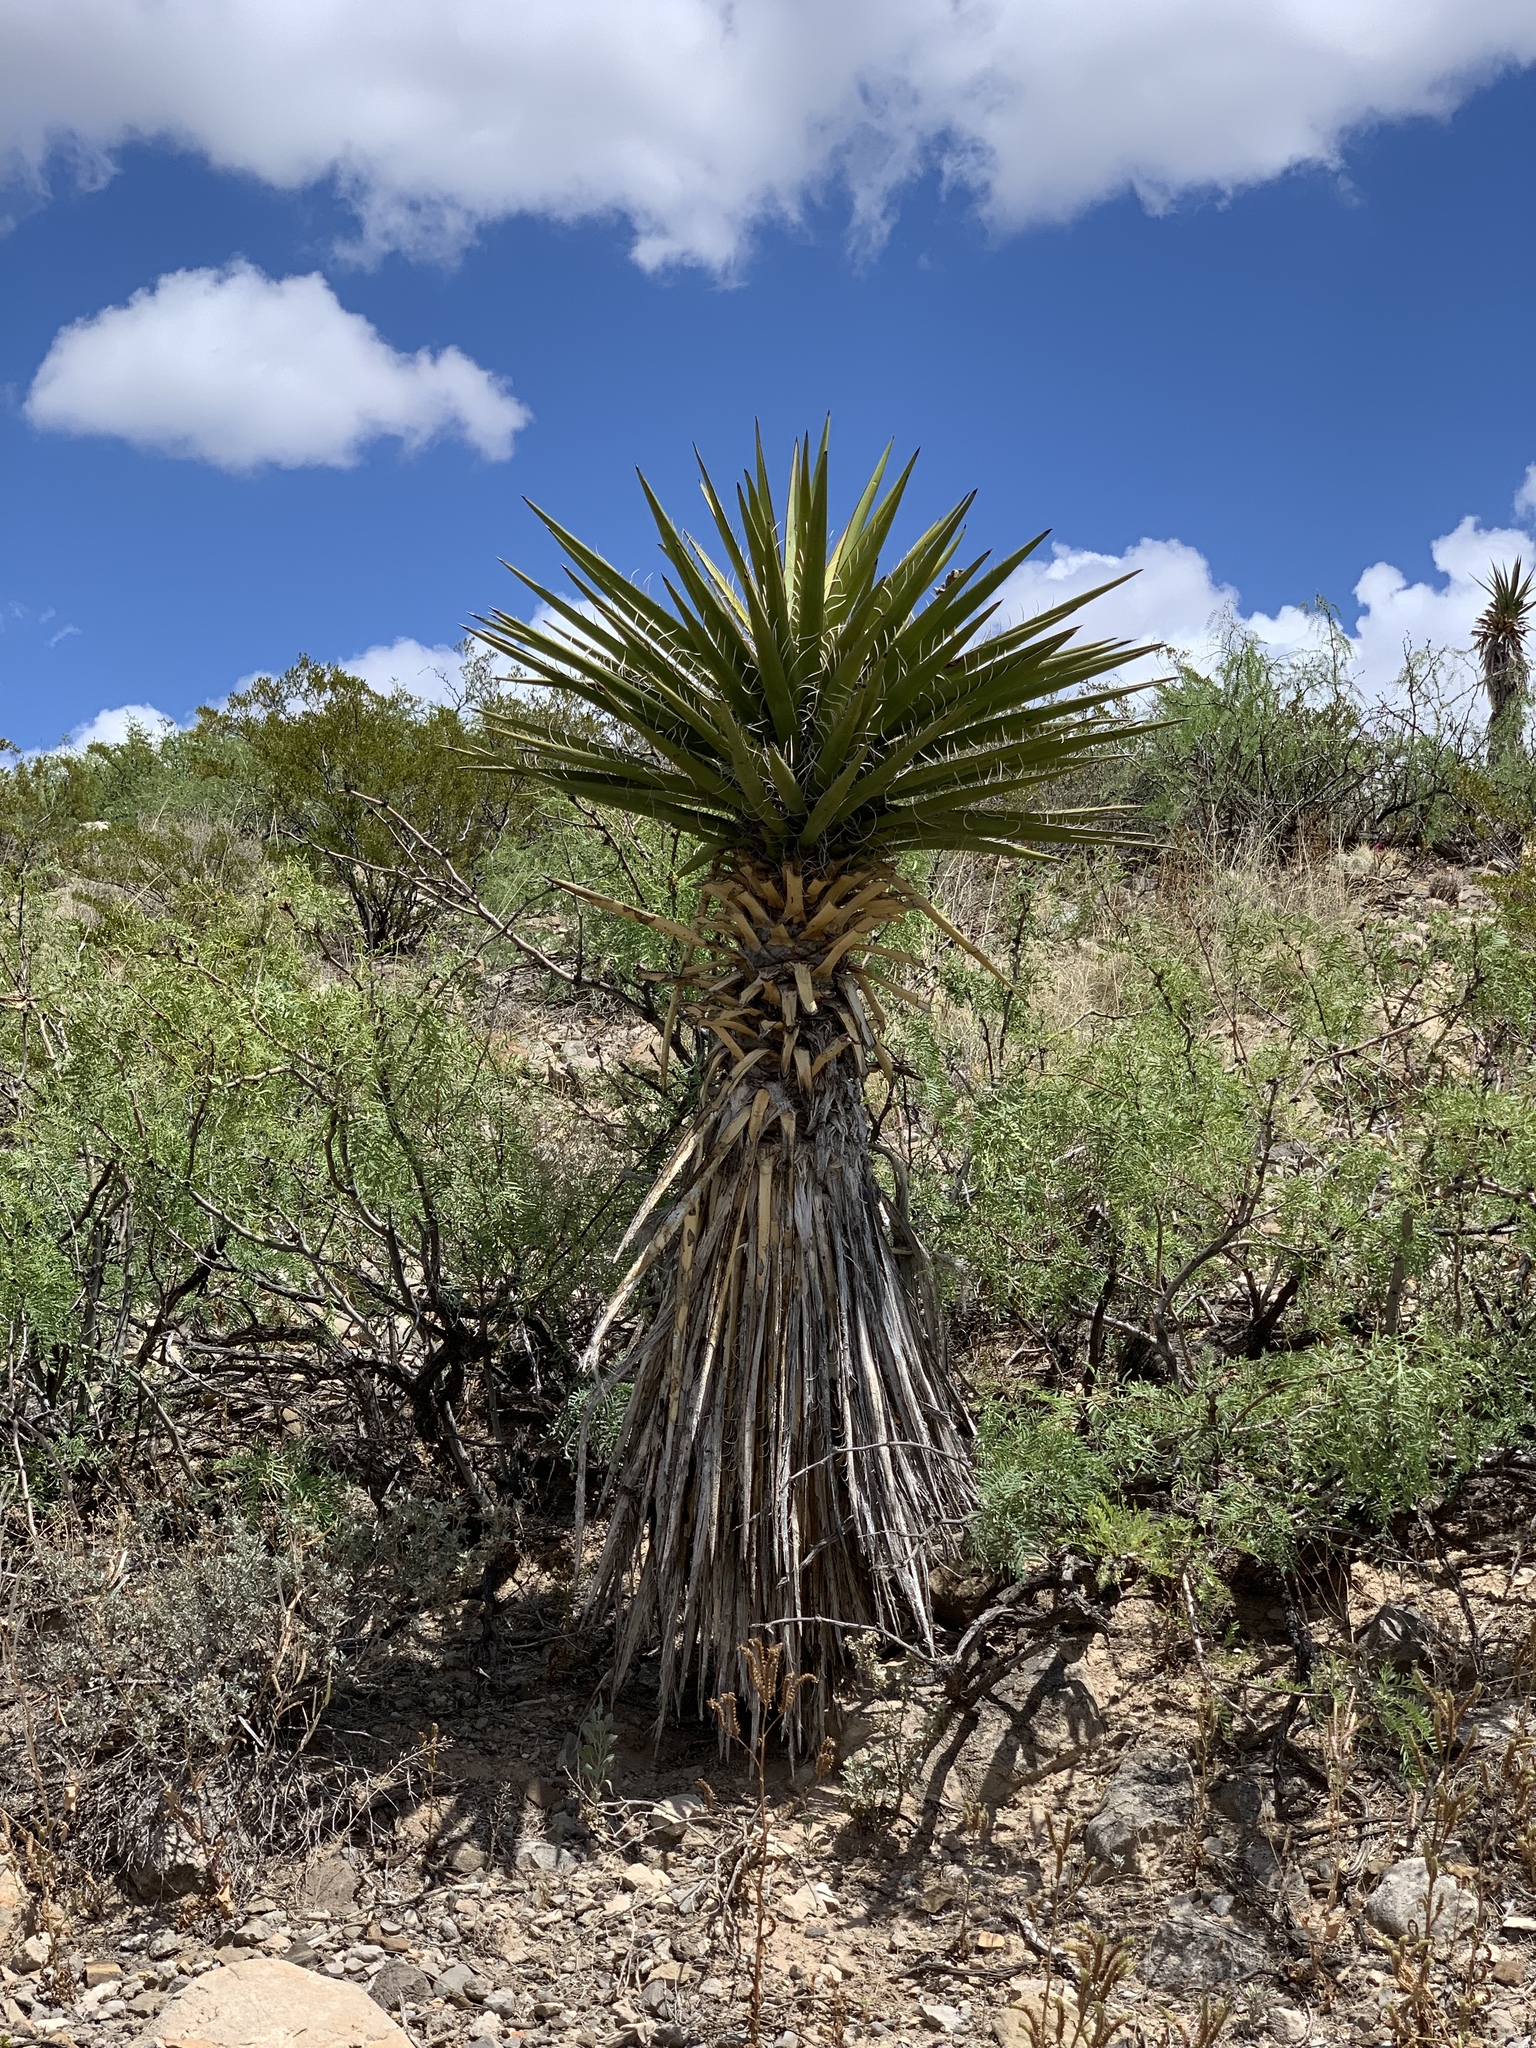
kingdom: Plantae
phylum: Tracheophyta
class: Liliopsida
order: Asparagales
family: Asparagaceae
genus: Yucca
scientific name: Yucca treculiana
